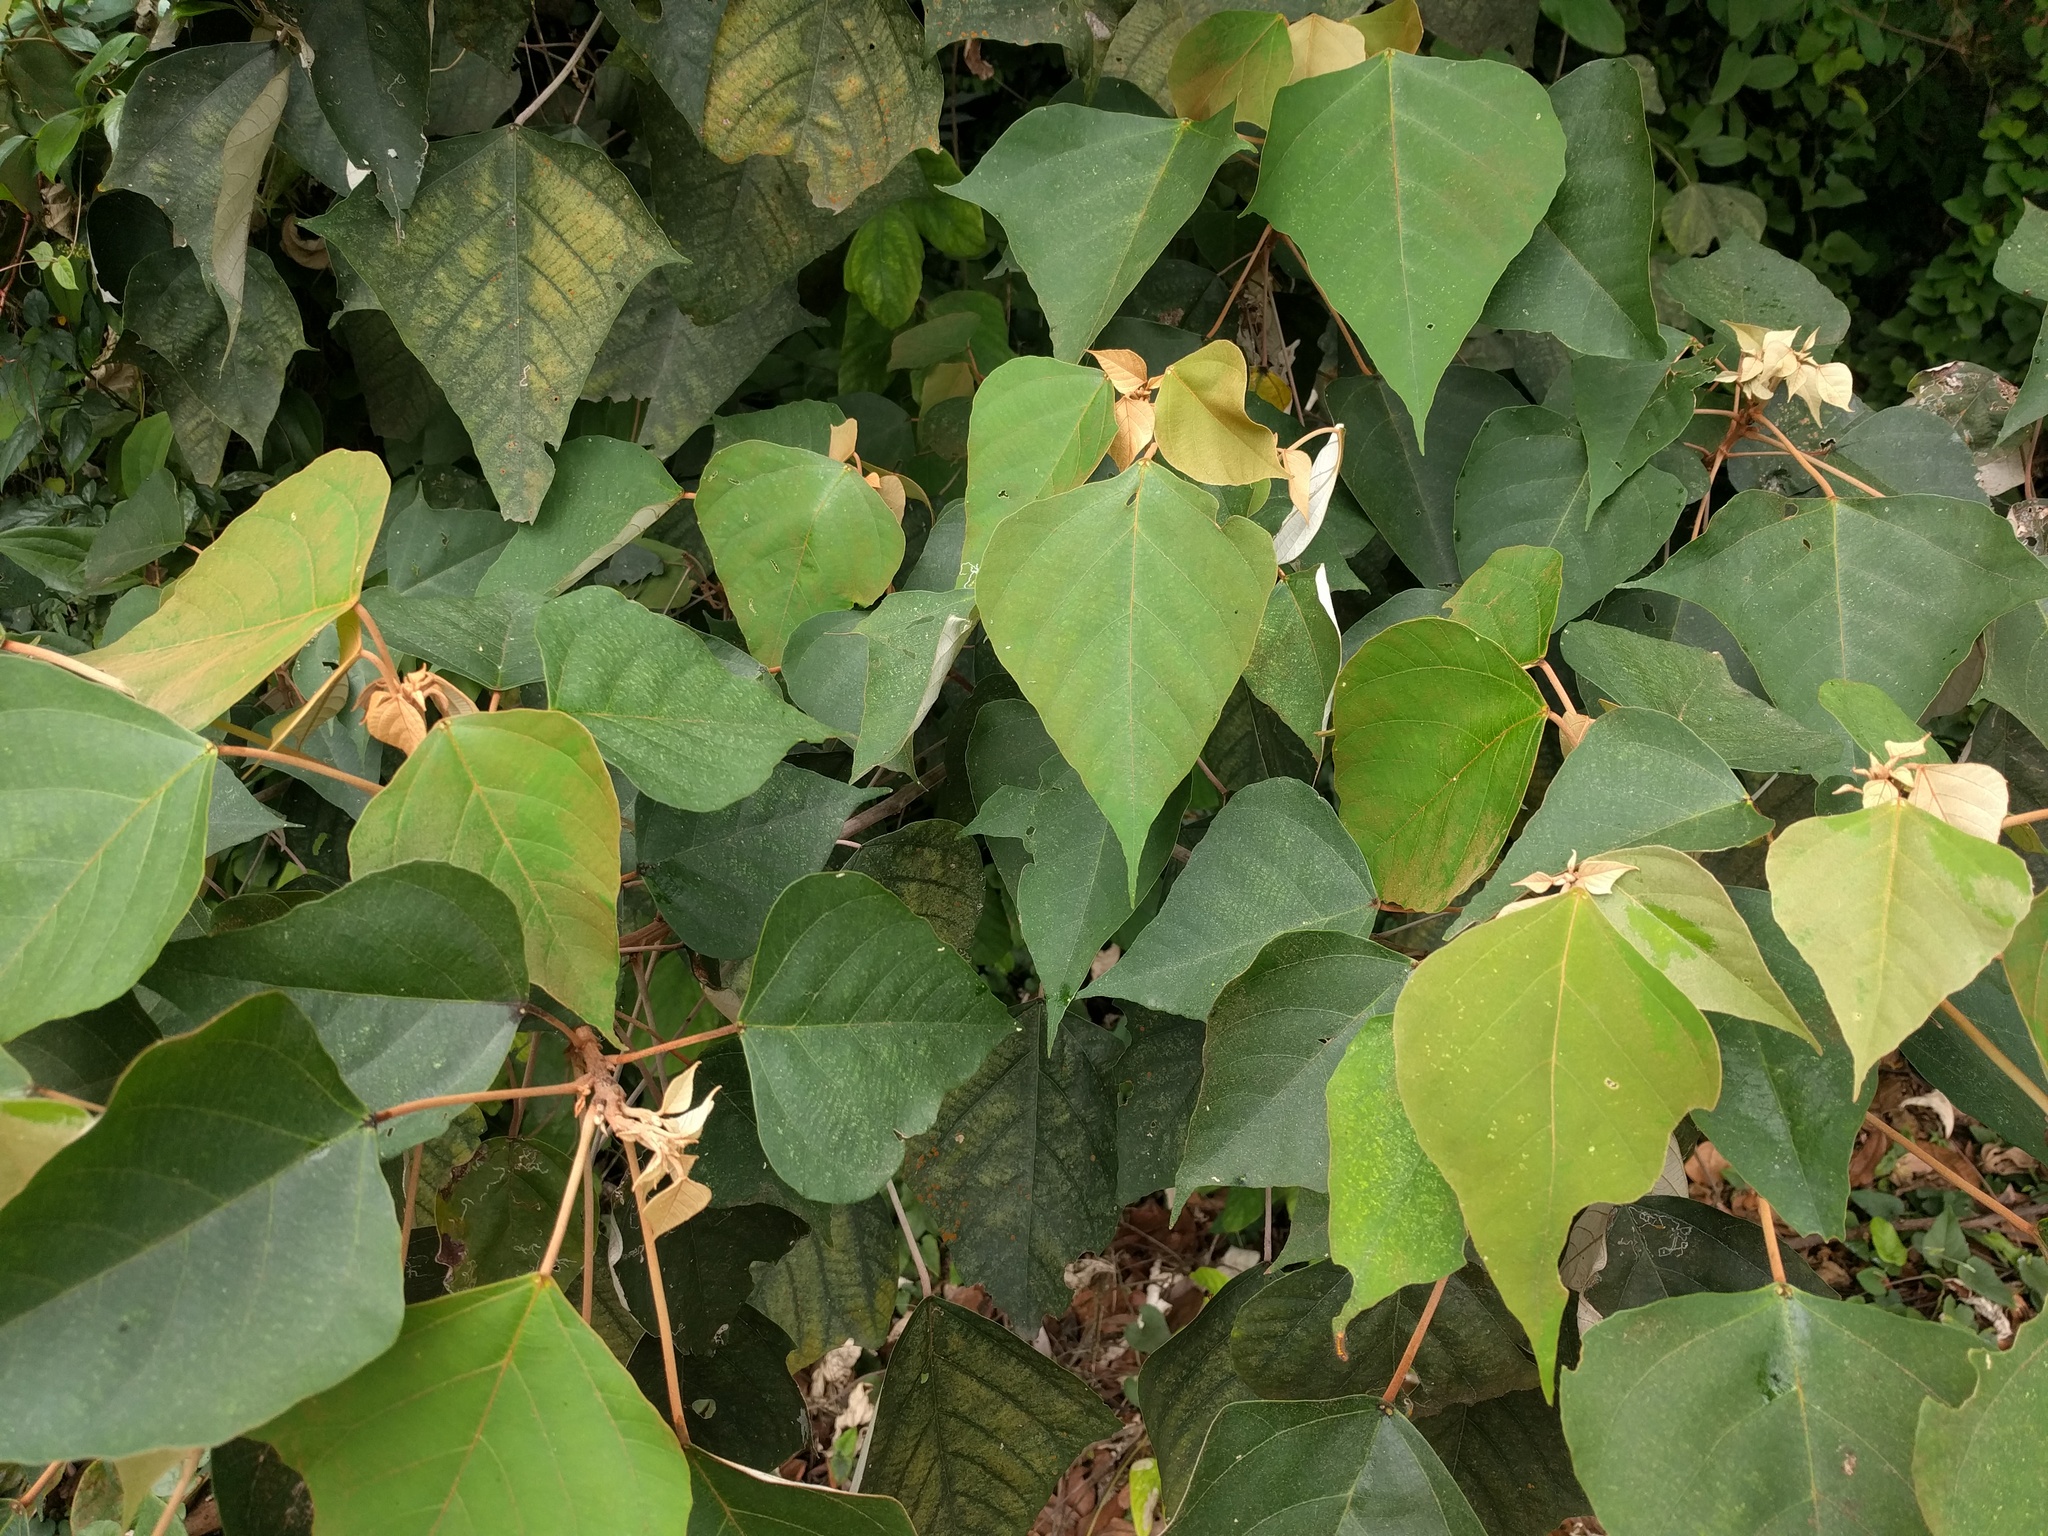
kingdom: Plantae
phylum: Tracheophyta
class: Magnoliopsida
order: Malpighiales
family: Euphorbiaceae
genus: Mallotus
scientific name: Mallotus paniculatus
